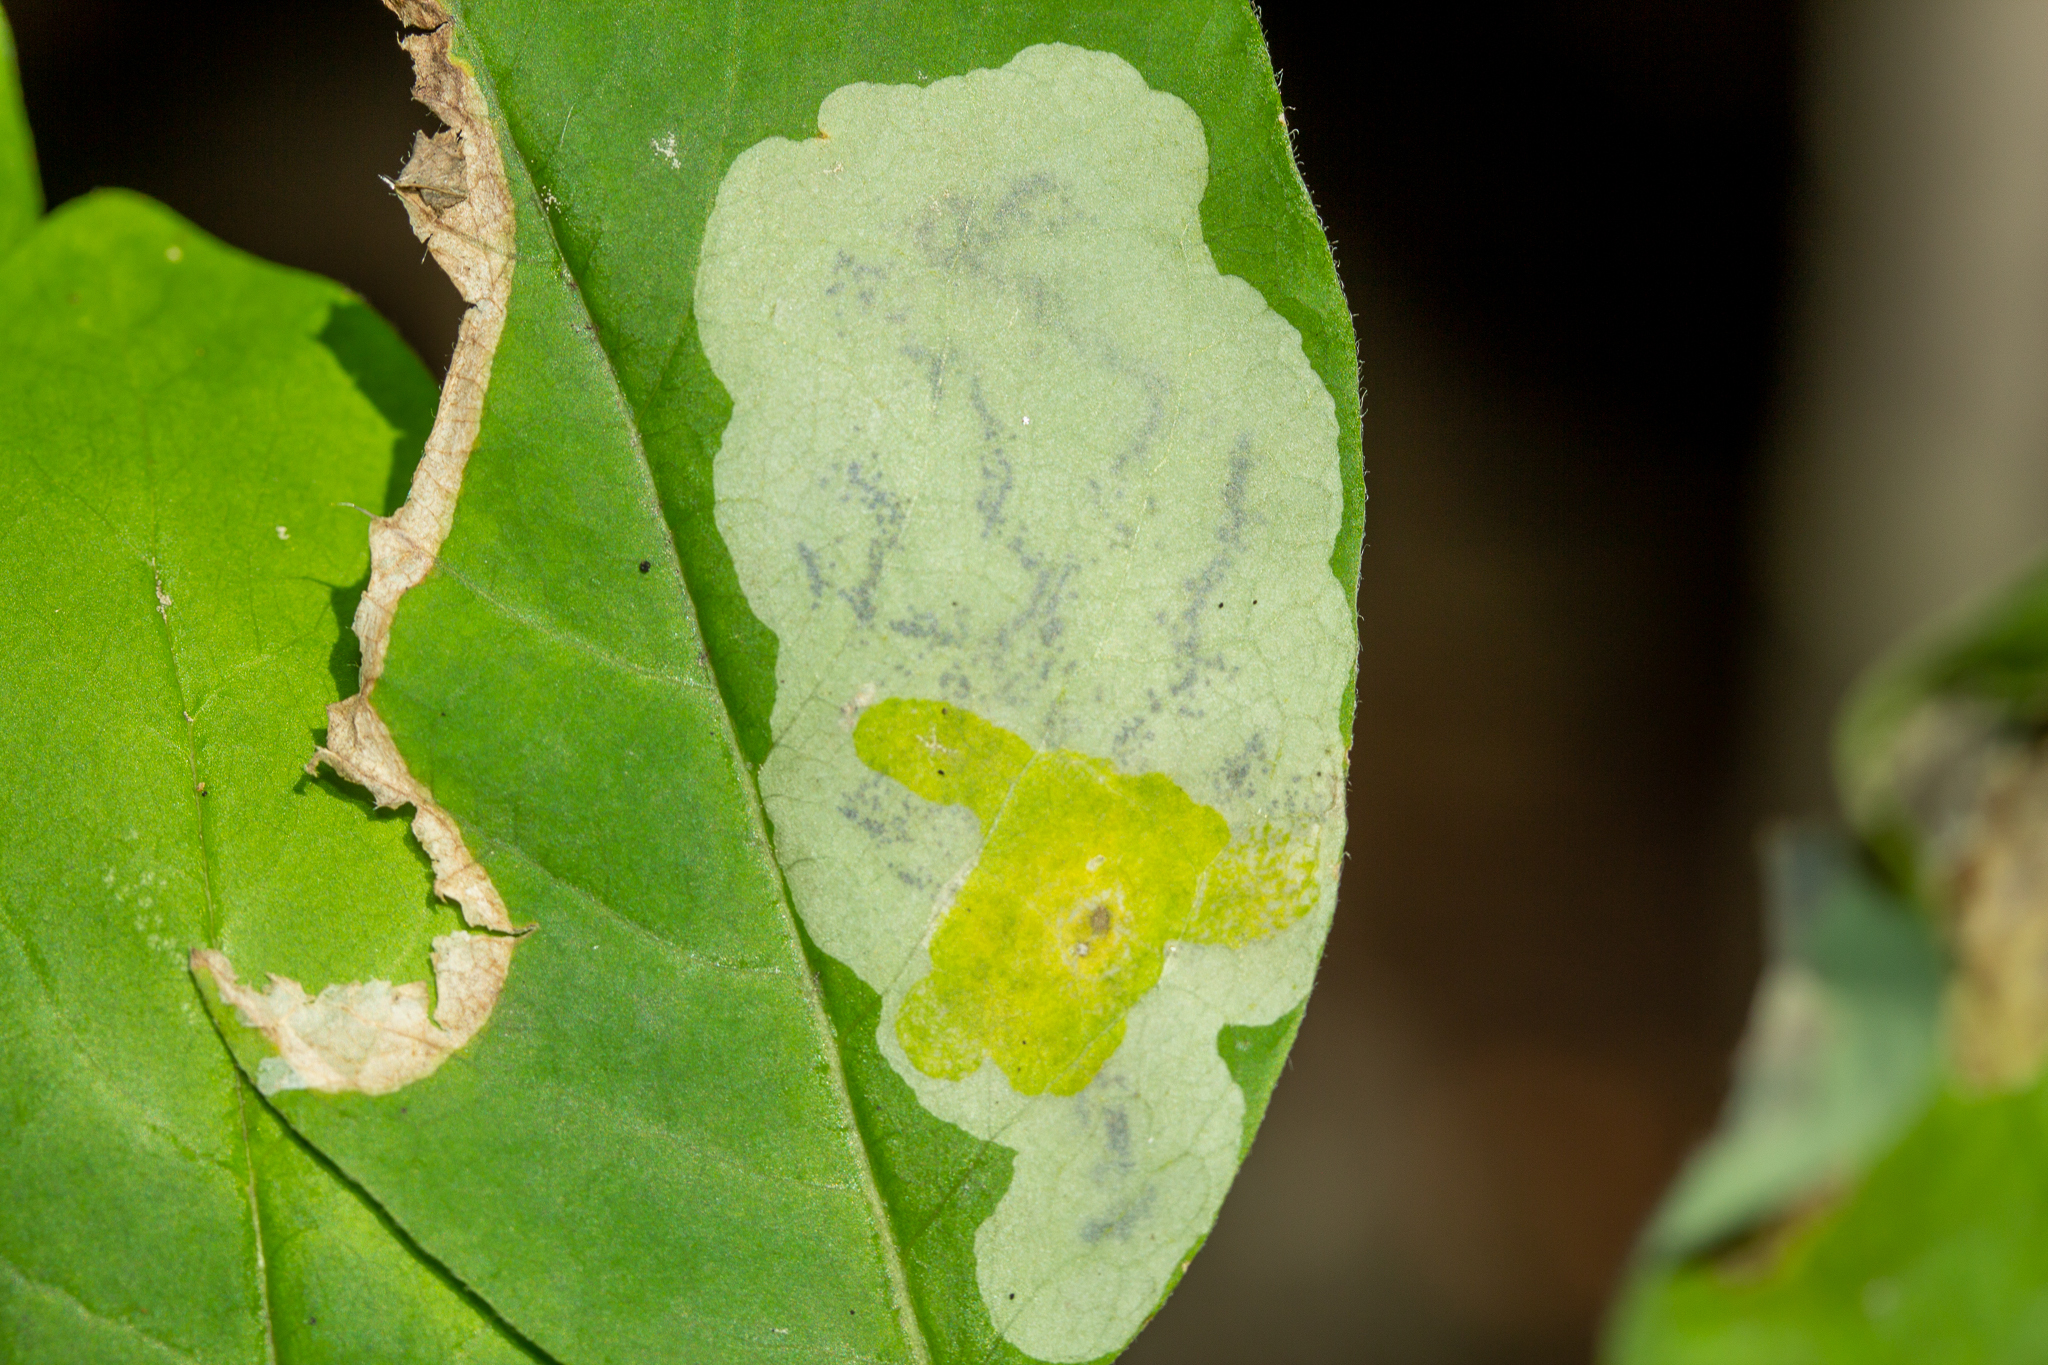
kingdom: Animalia
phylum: Arthropoda
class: Insecta
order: Lepidoptera
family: Gracillariidae
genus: Leucanthiza
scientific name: Leucanthiza dircella
